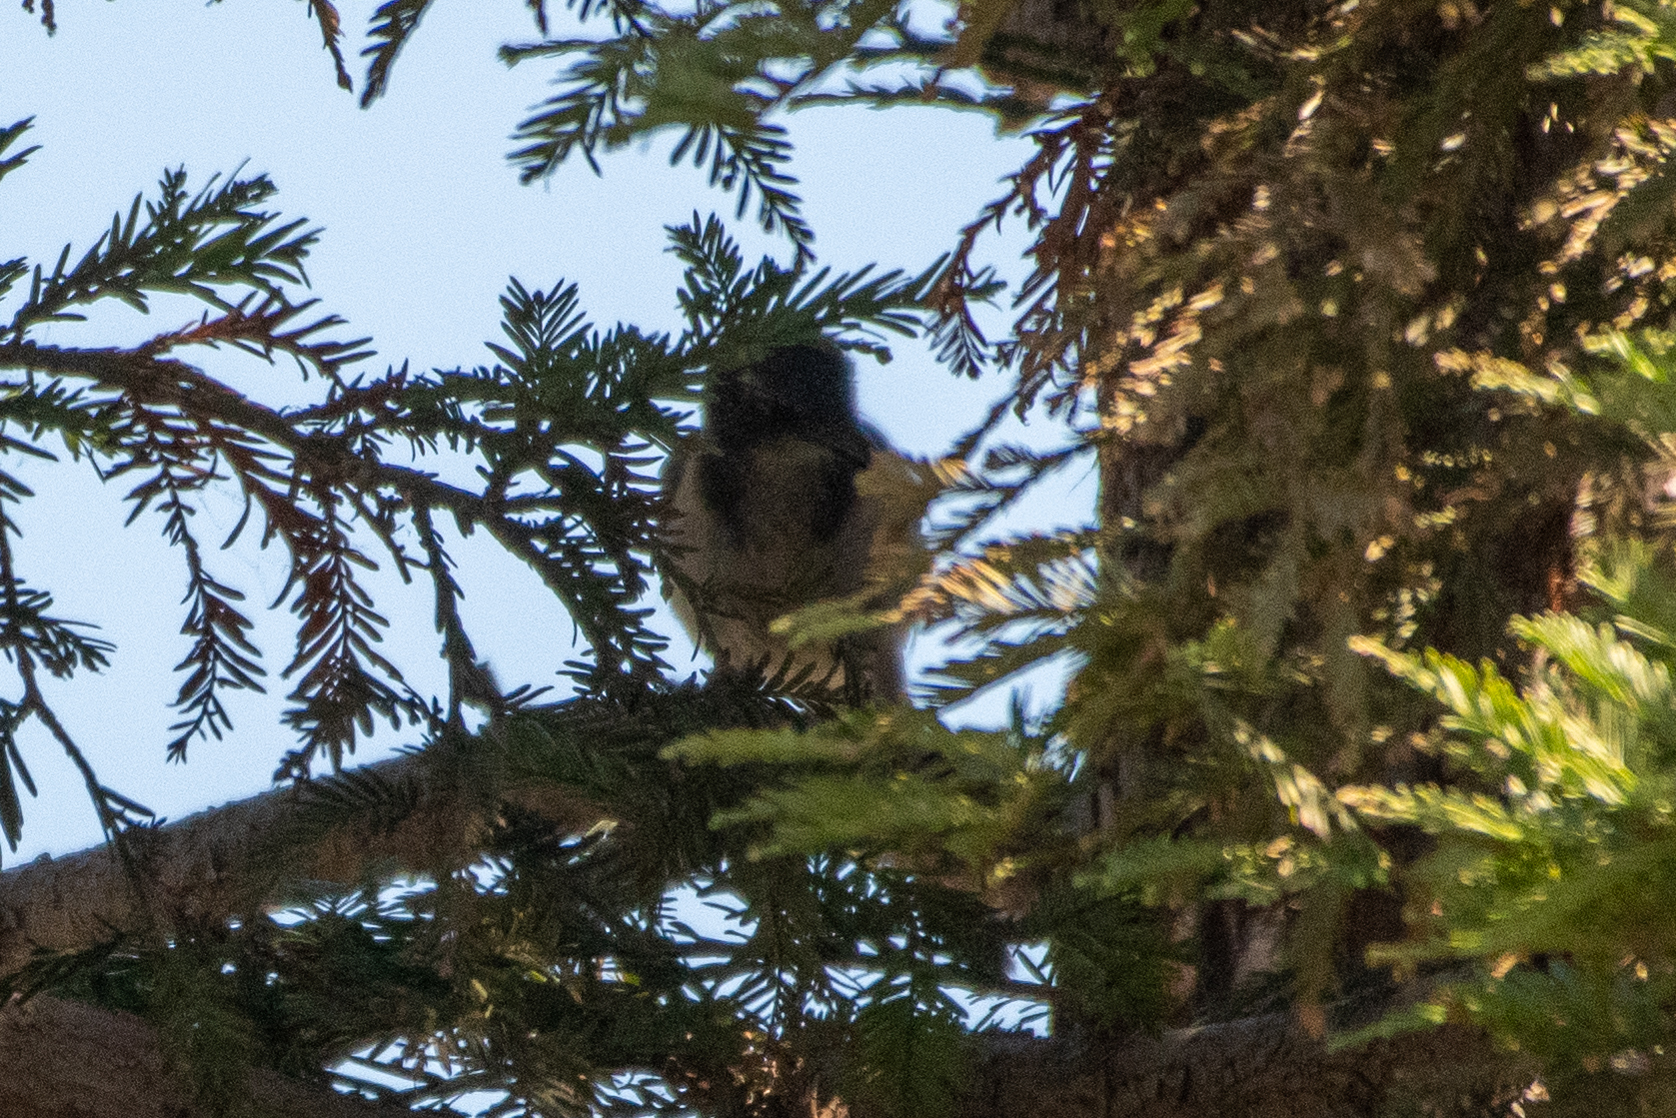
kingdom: Animalia
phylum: Chordata
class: Aves
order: Passeriformes
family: Corvidae
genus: Aphelocoma
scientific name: Aphelocoma californica
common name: California scrub-jay
